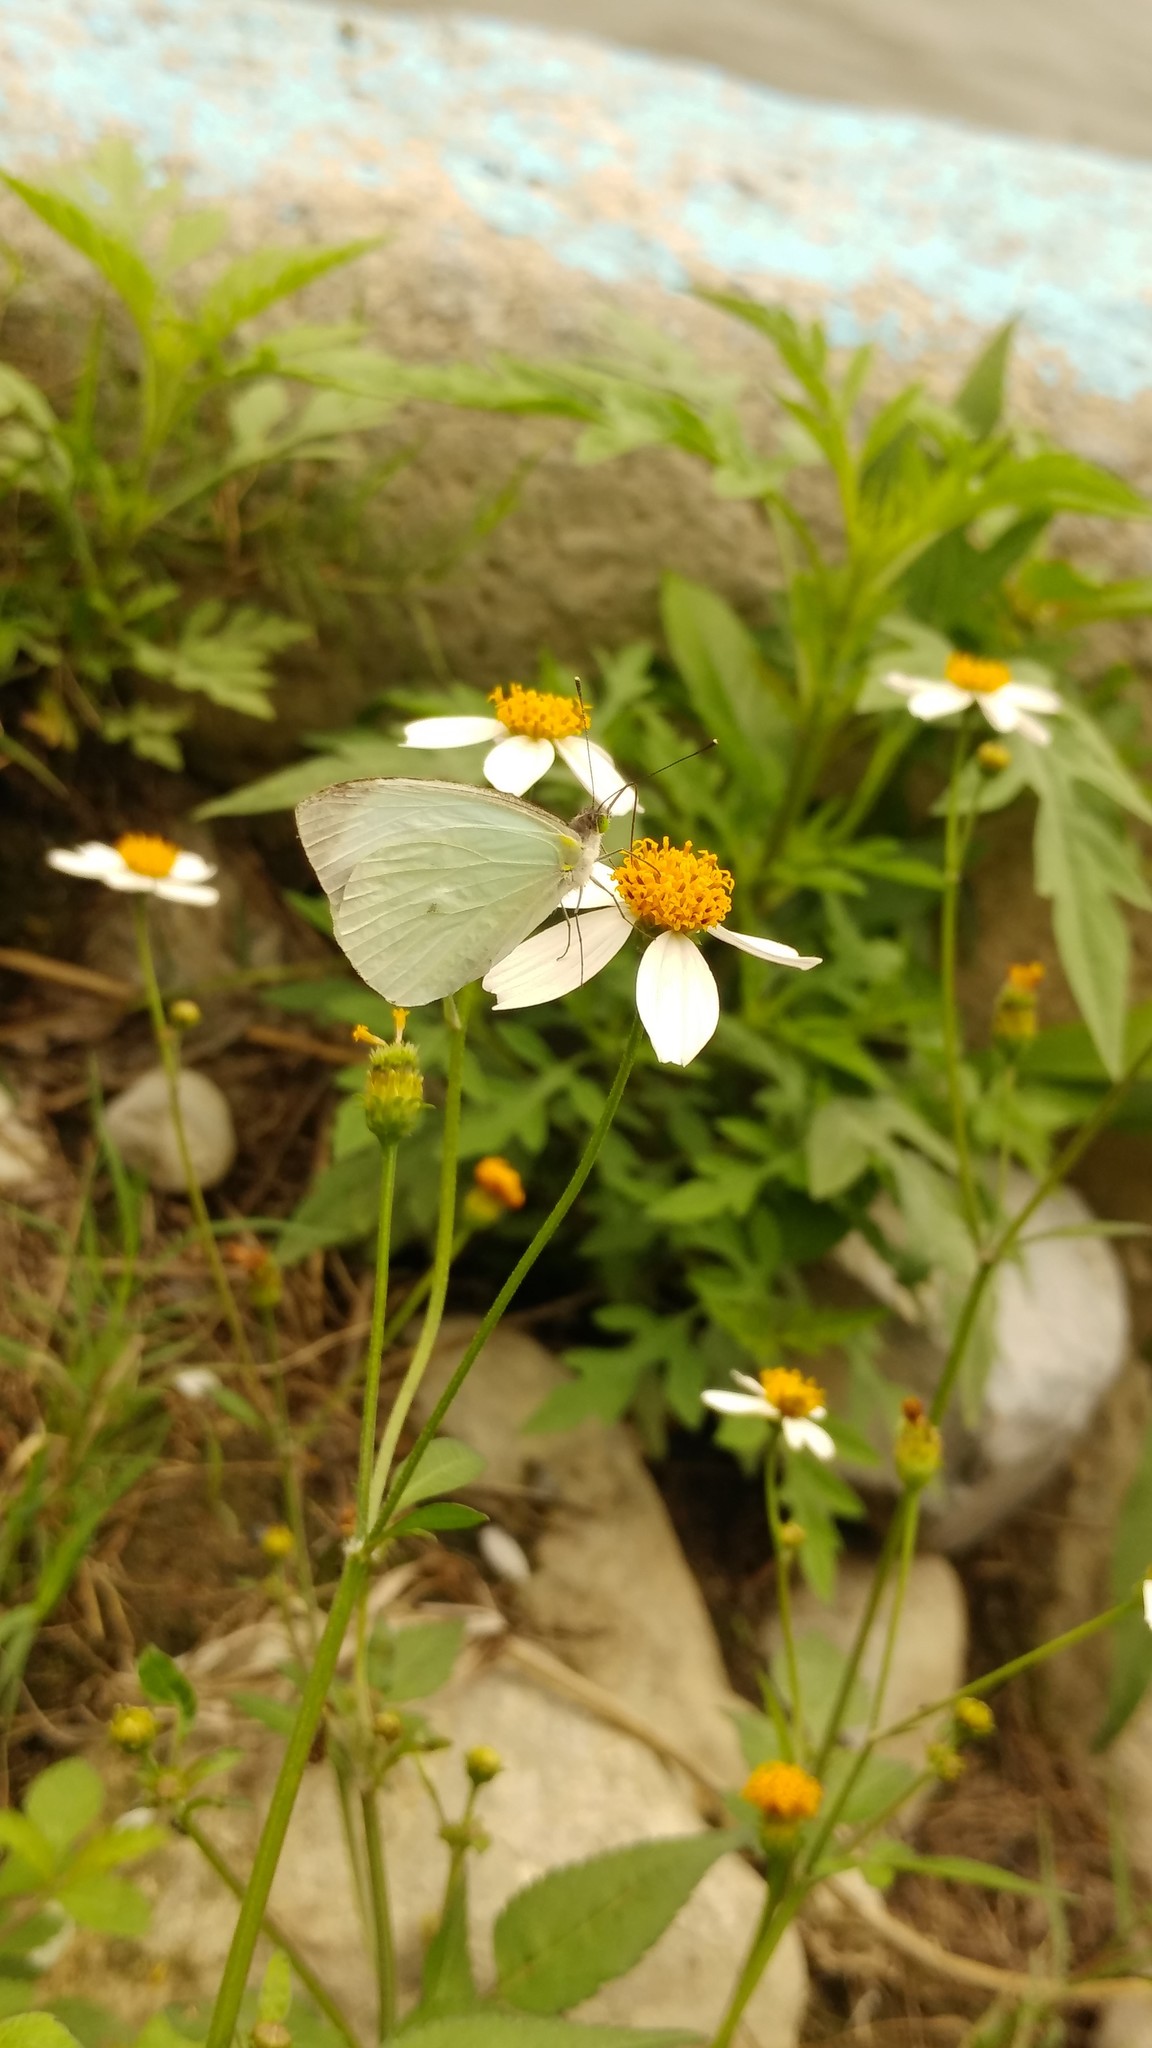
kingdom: Animalia
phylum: Arthropoda
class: Insecta
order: Lepidoptera
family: Pieridae
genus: Leptophobia
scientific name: Leptophobia aripa
